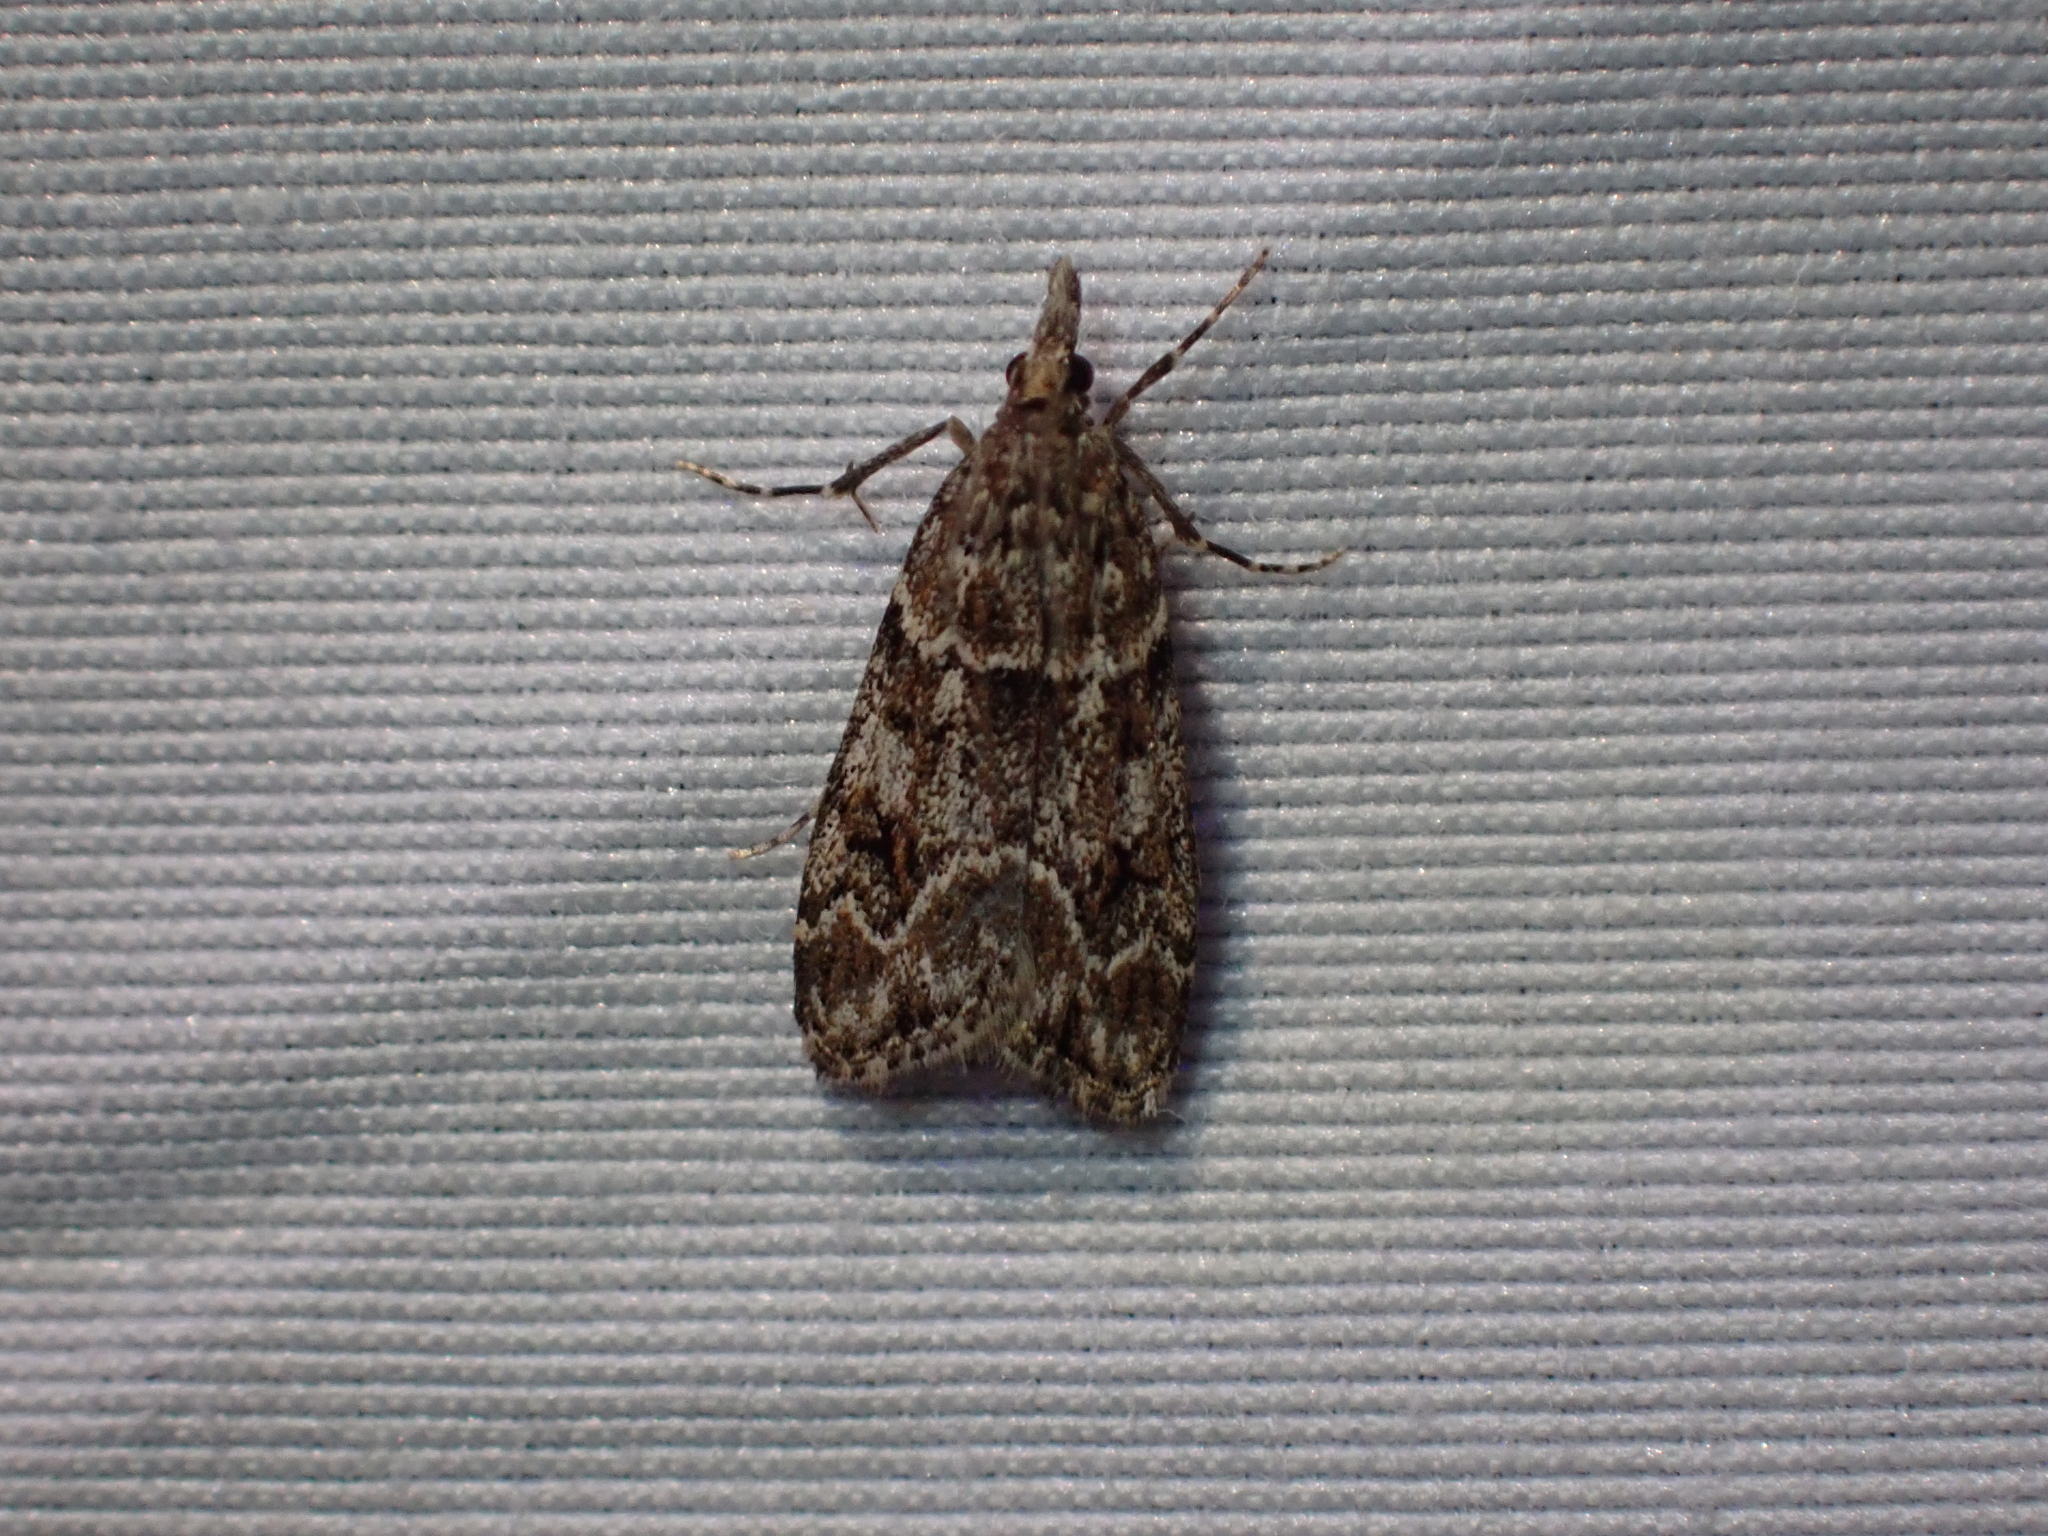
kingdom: Animalia
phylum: Arthropoda
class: Insecta
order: Lepidoptera
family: Crambidae
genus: Eudonia
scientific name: Eudonia echo
